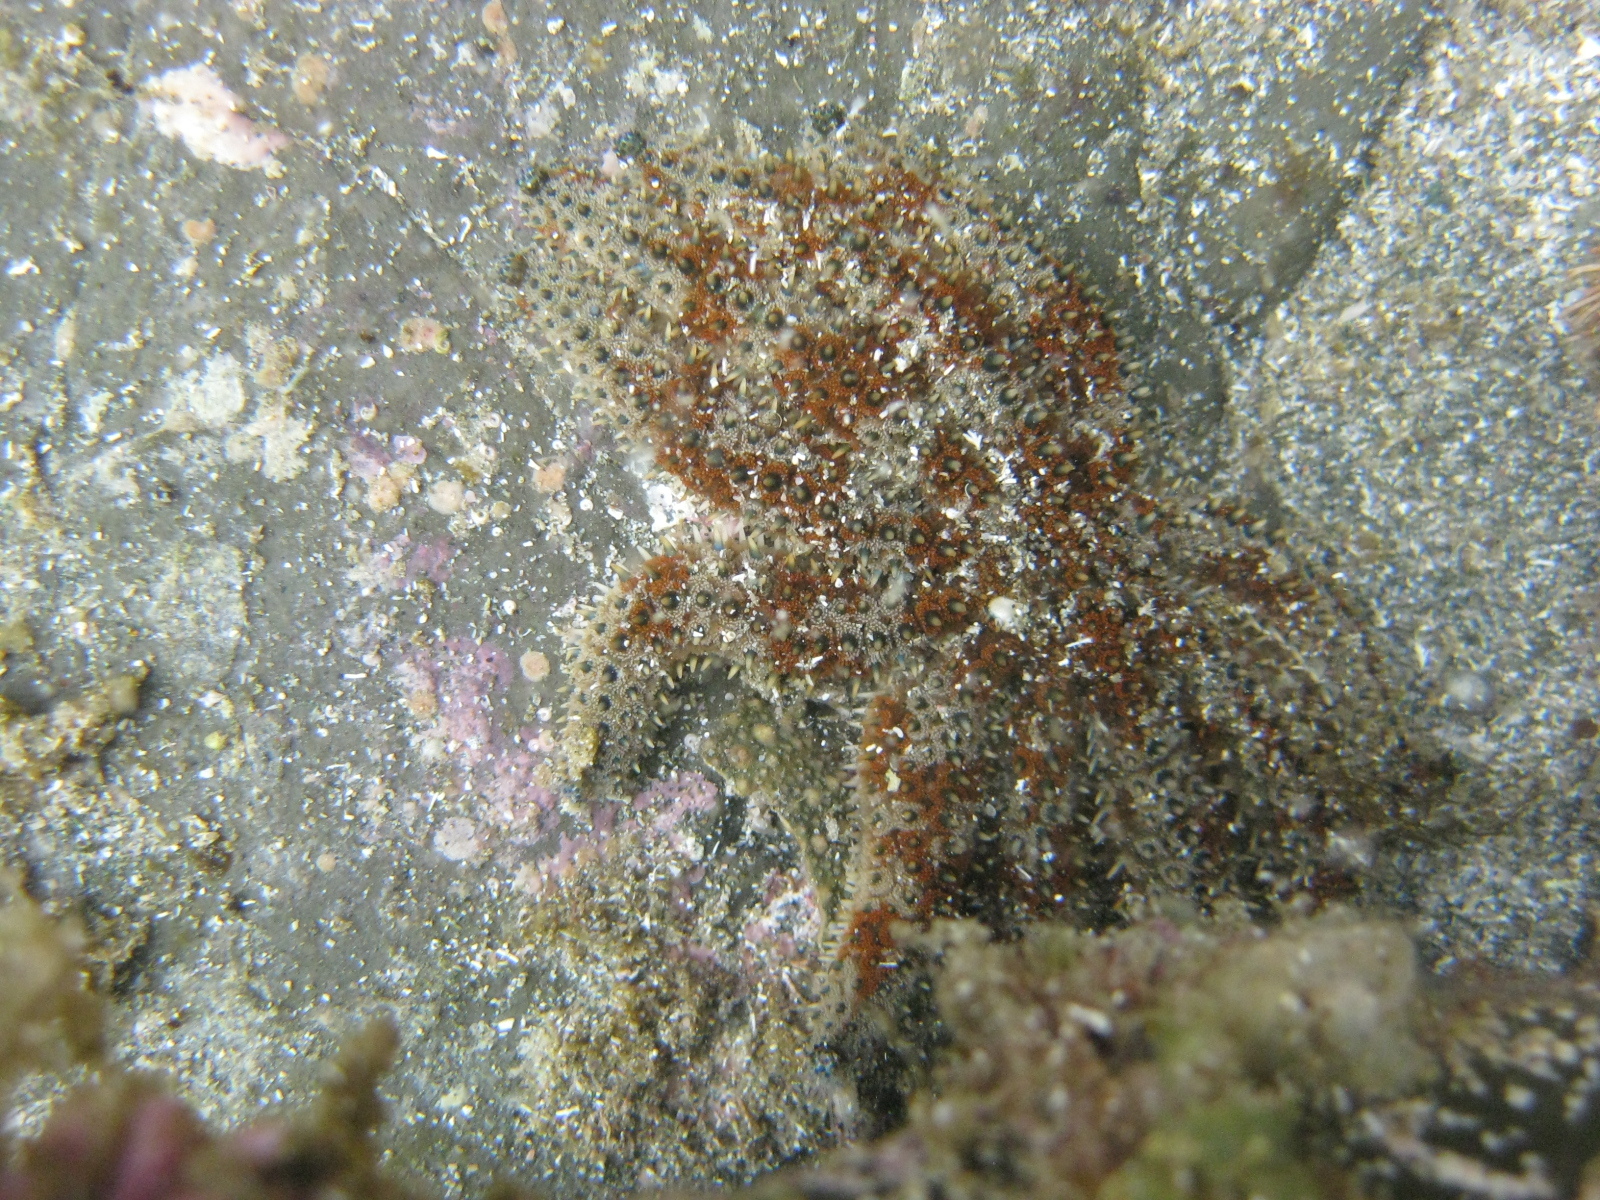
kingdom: Animalia
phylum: Echinodermata
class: Asteroidea
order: Forcipulatida
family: Asteriidae
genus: Coscinasterias
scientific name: Coscinasterias muricata
